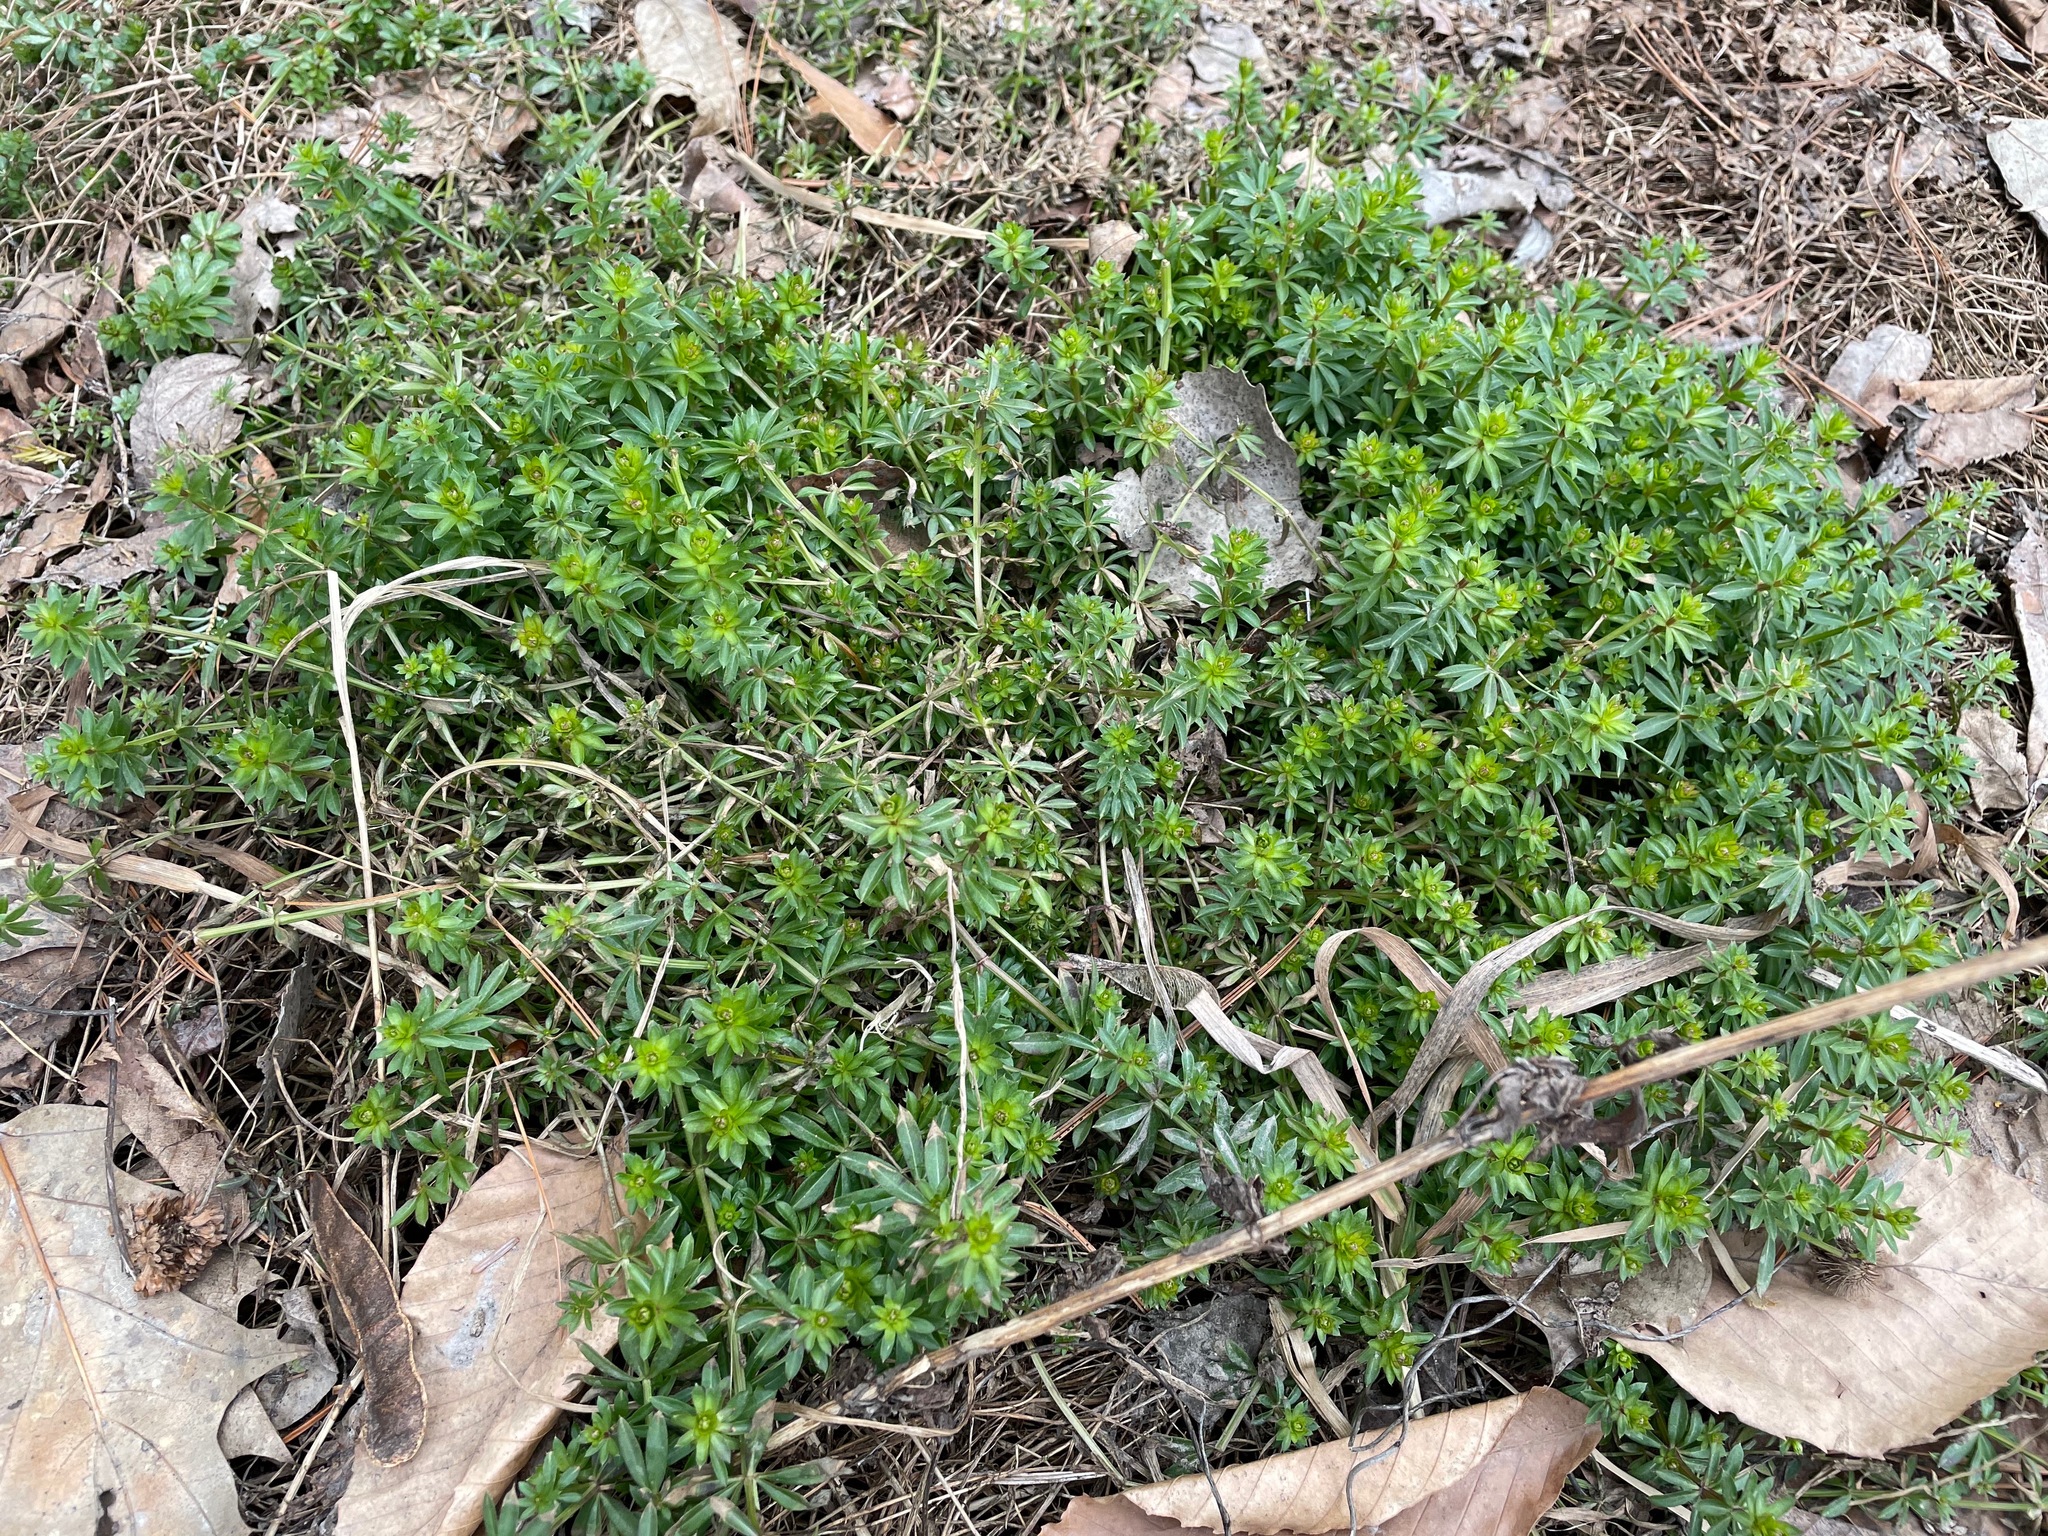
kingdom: Plantae
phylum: Tracheophyta
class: Magnoliopsida
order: Gentianales
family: Rubiaceae
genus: Galium
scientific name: Galium mollugo
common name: Hedge bedstraw
